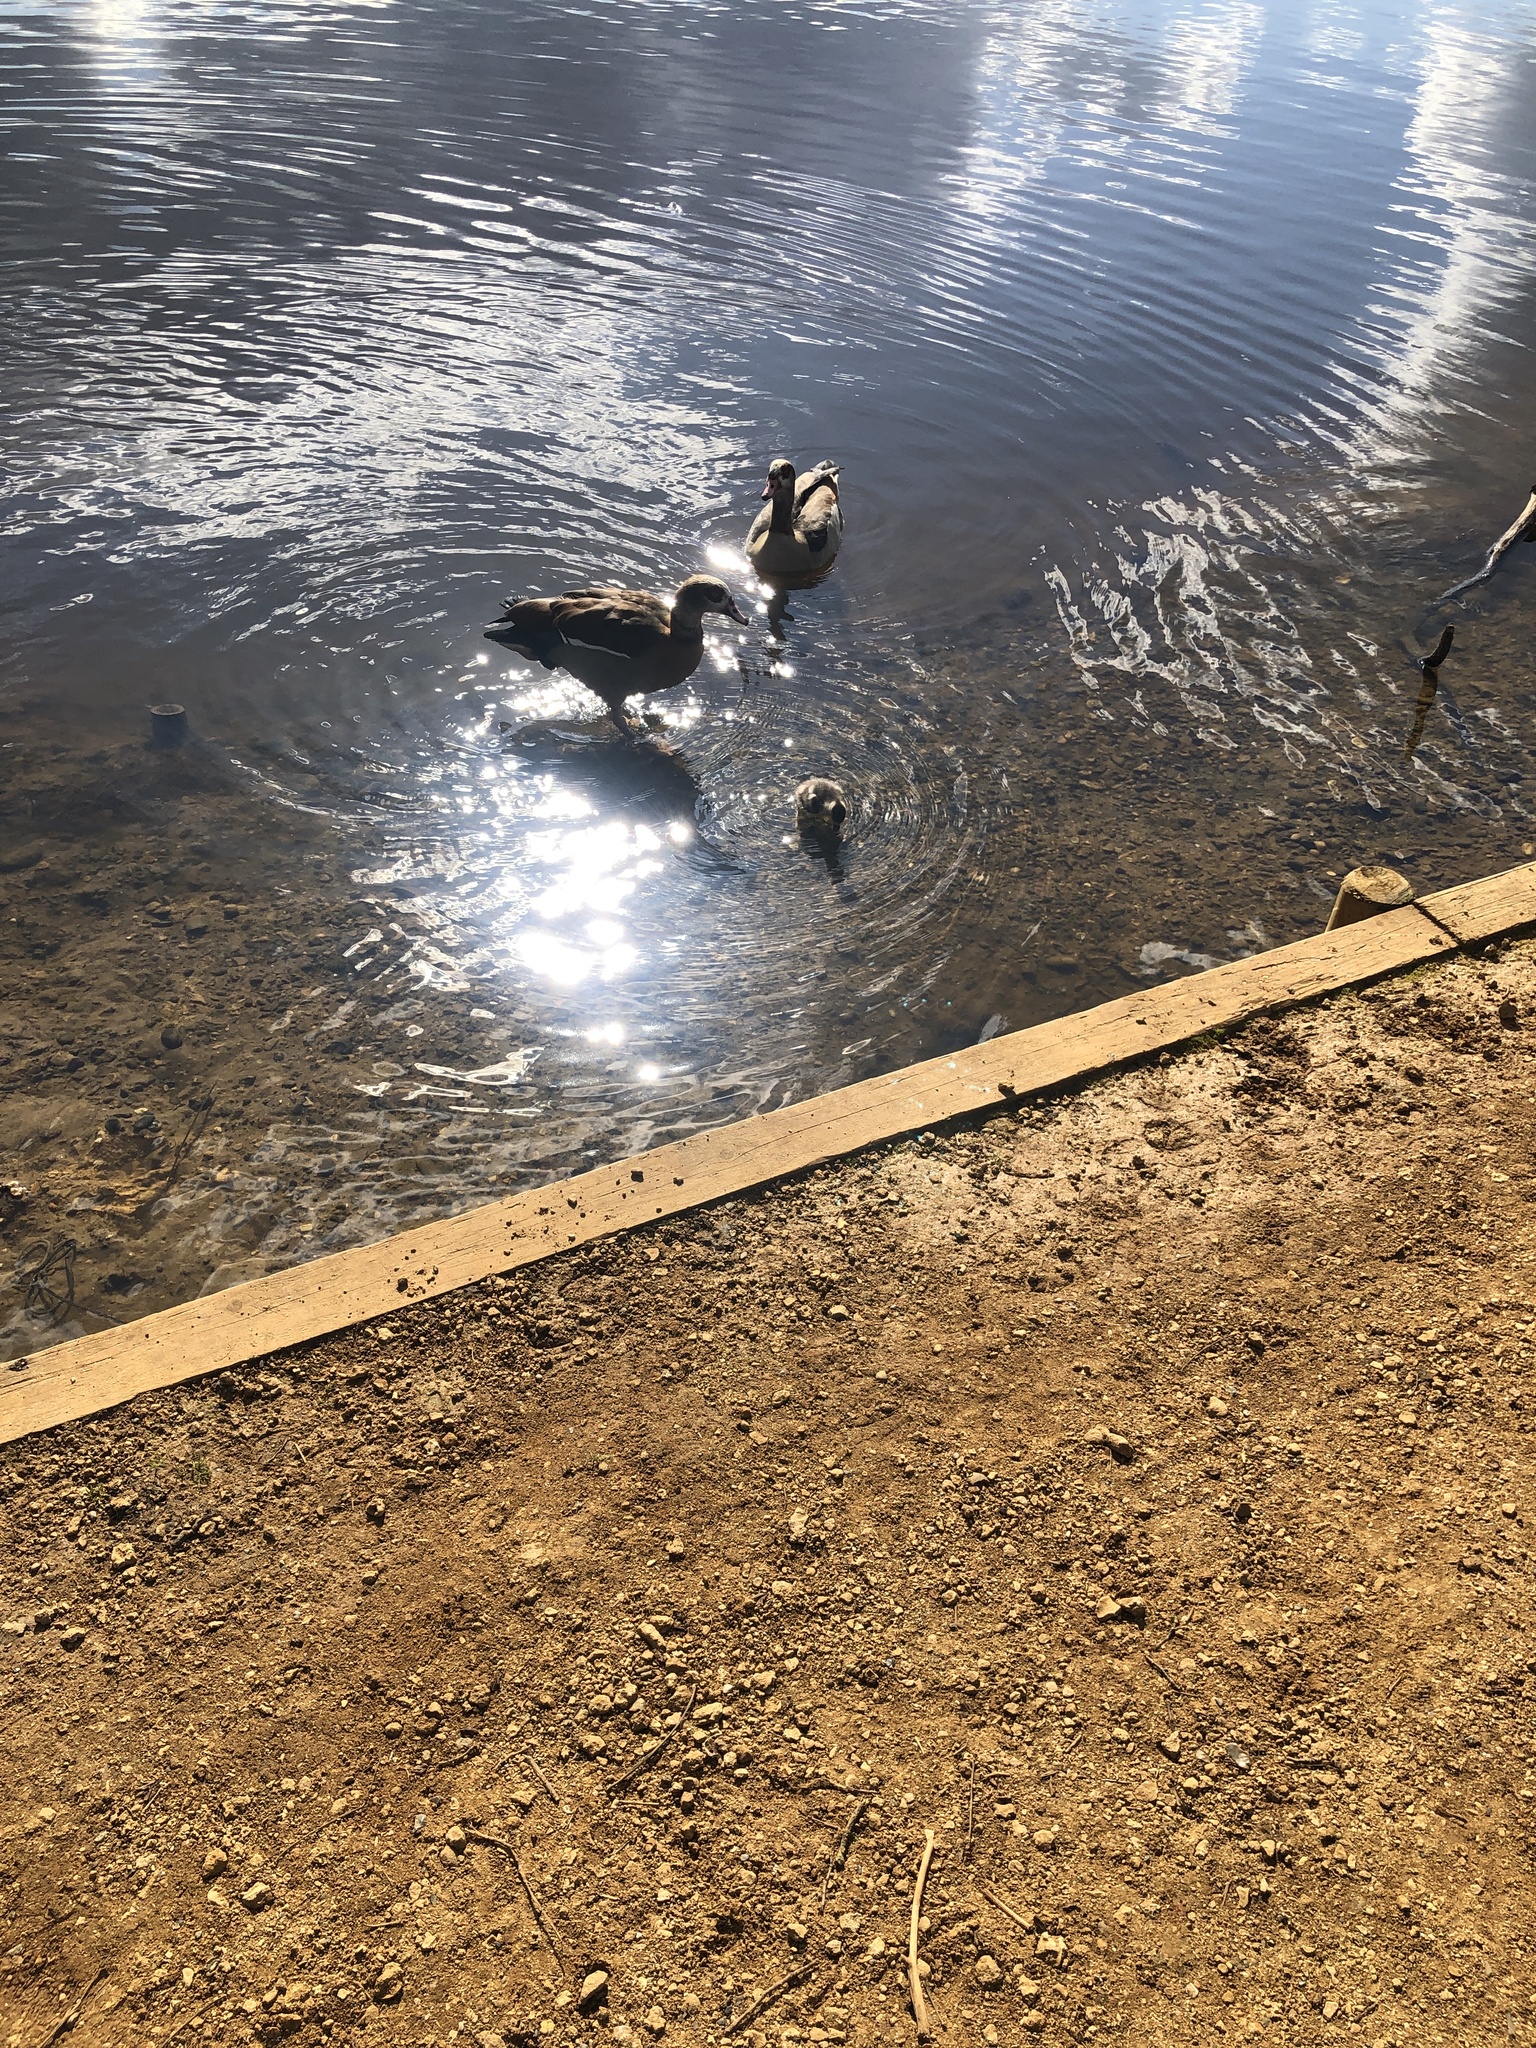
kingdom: Animalia
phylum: Chordata
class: Aves
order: Anseriformes
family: Anatidae
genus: Alopochen
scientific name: Alopochen aegyptiaca
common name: Egyptian goose
